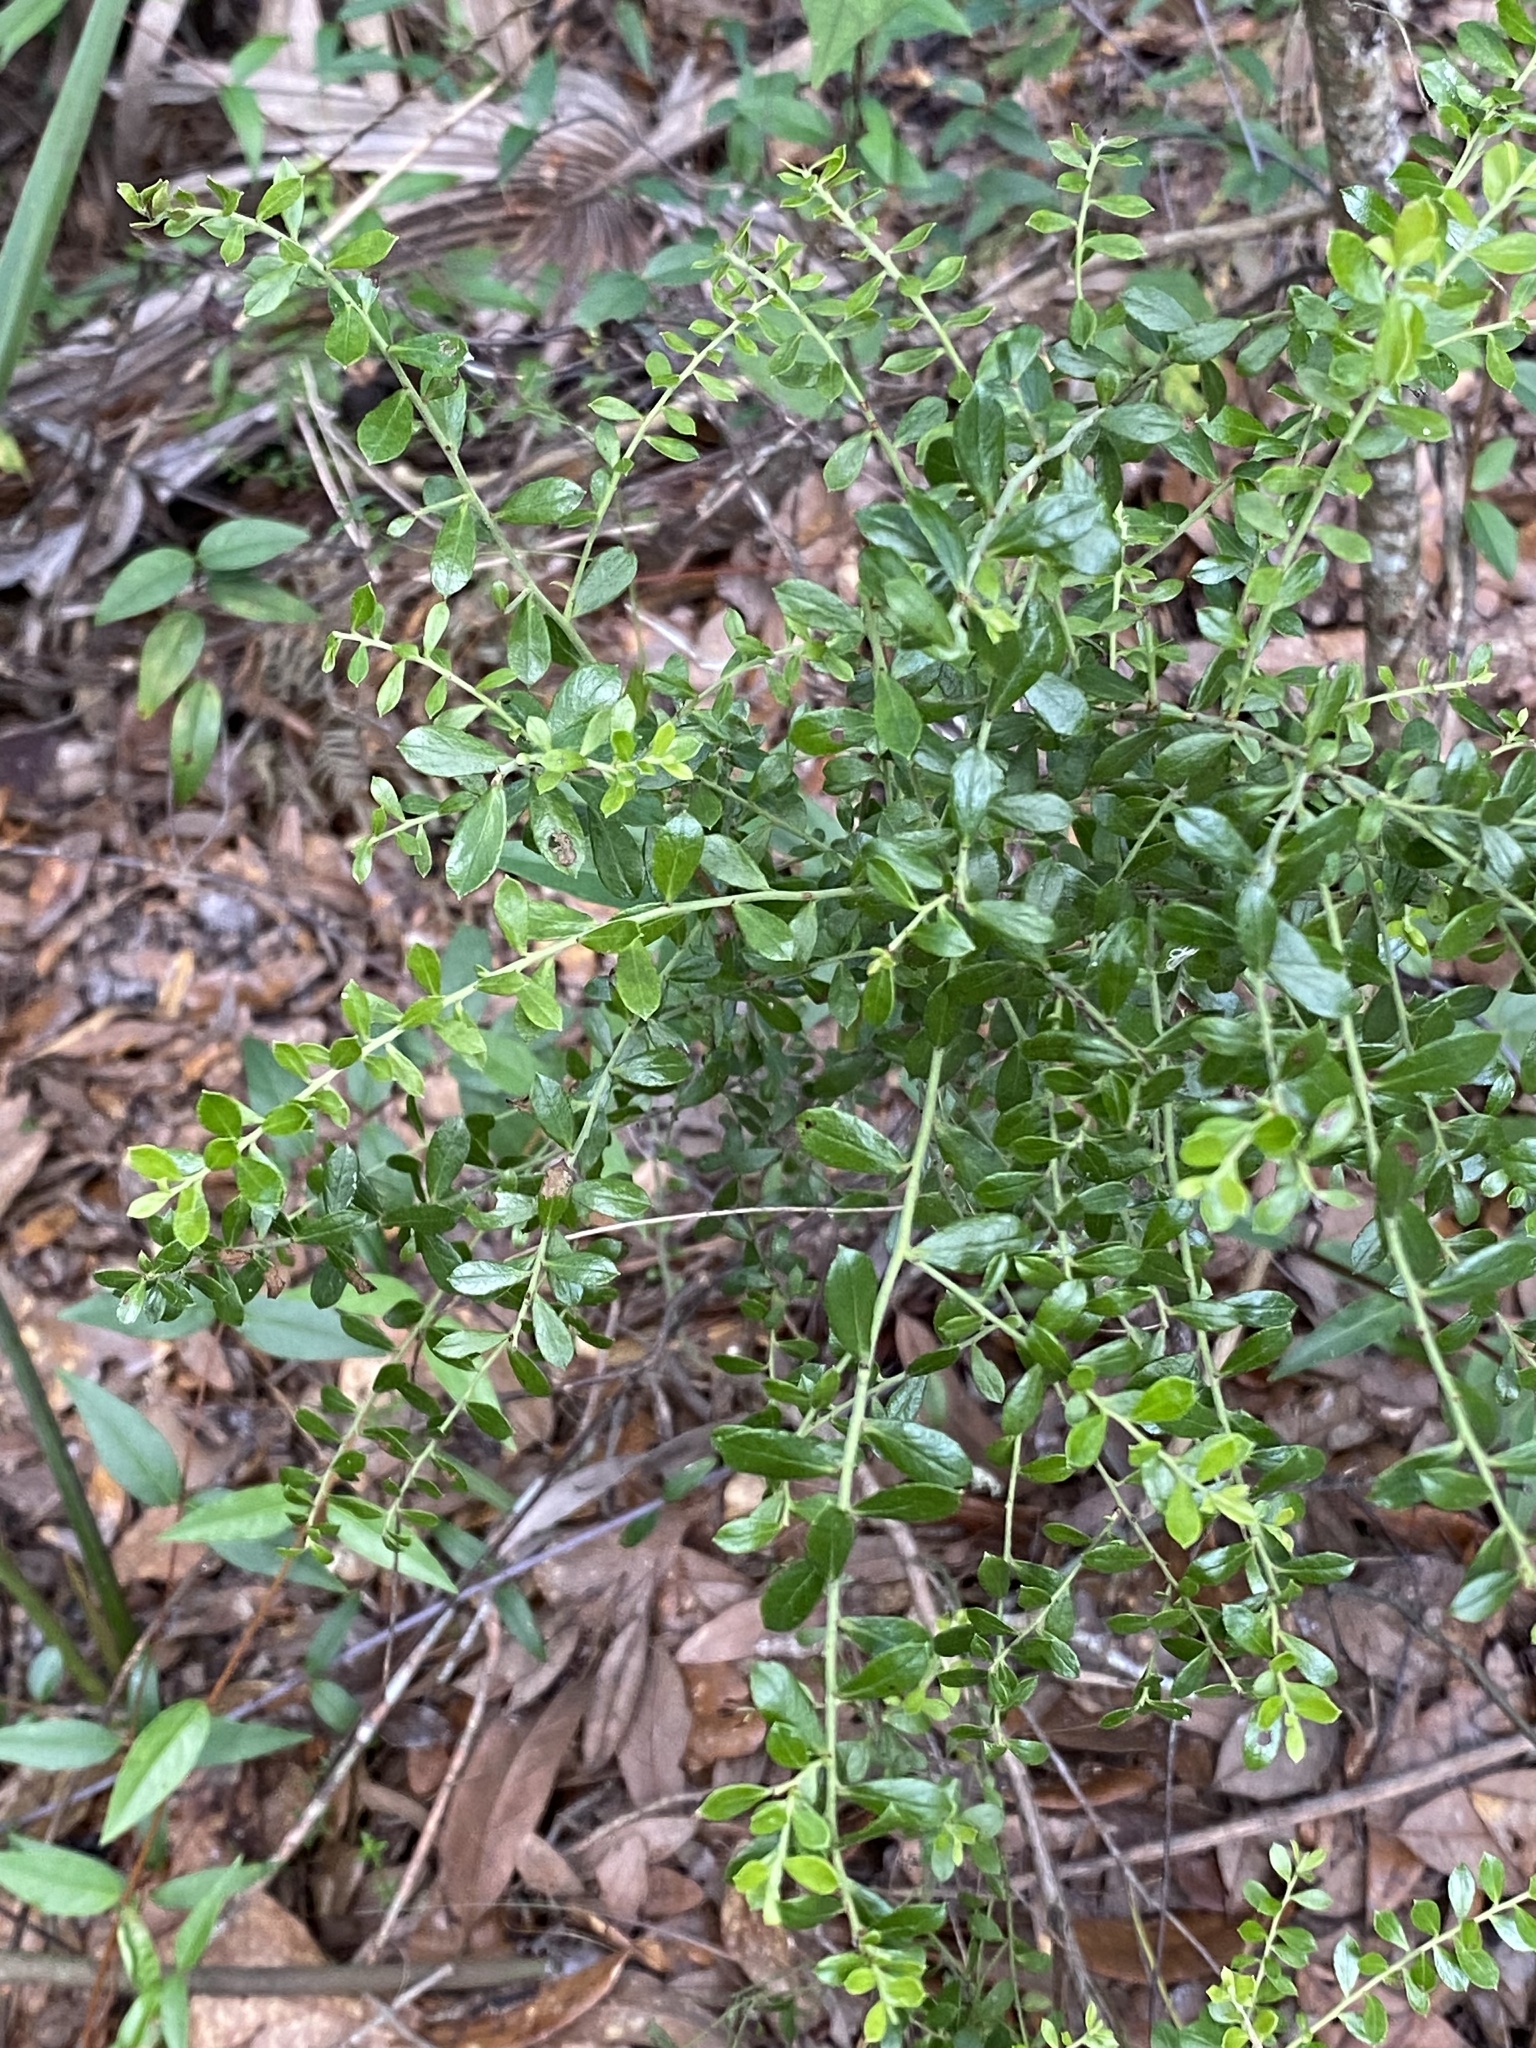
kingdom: Plantae
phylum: Tracheophyta
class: Magnoliopsida
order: Ericales
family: Ericaceae
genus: Vaccinium
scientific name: Vaccinium myrsinites
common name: Evergreen blueberry
